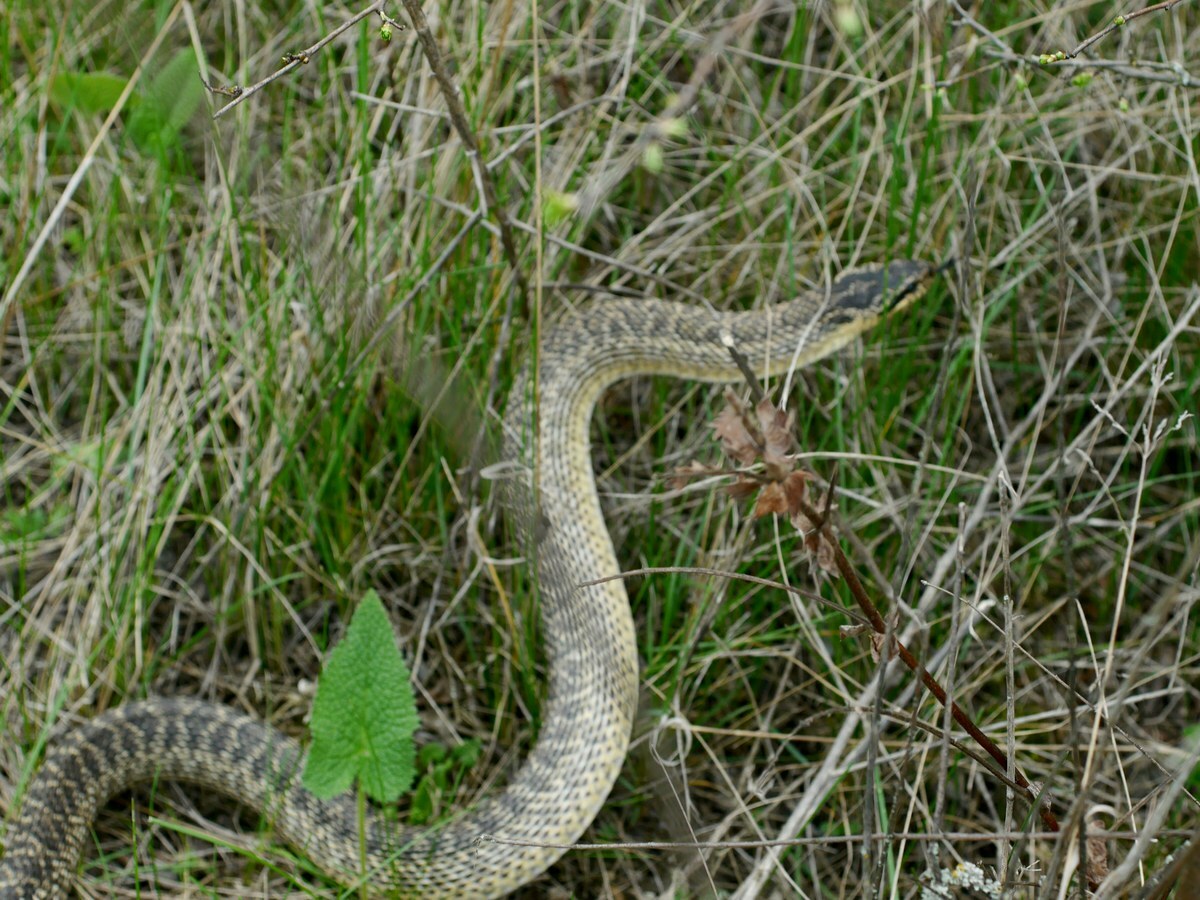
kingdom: Animalia
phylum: Chordata
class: Squamata
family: Colubridae
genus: Elaphe
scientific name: Elaphe sauromates
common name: Eastern four-lined ratsnake
